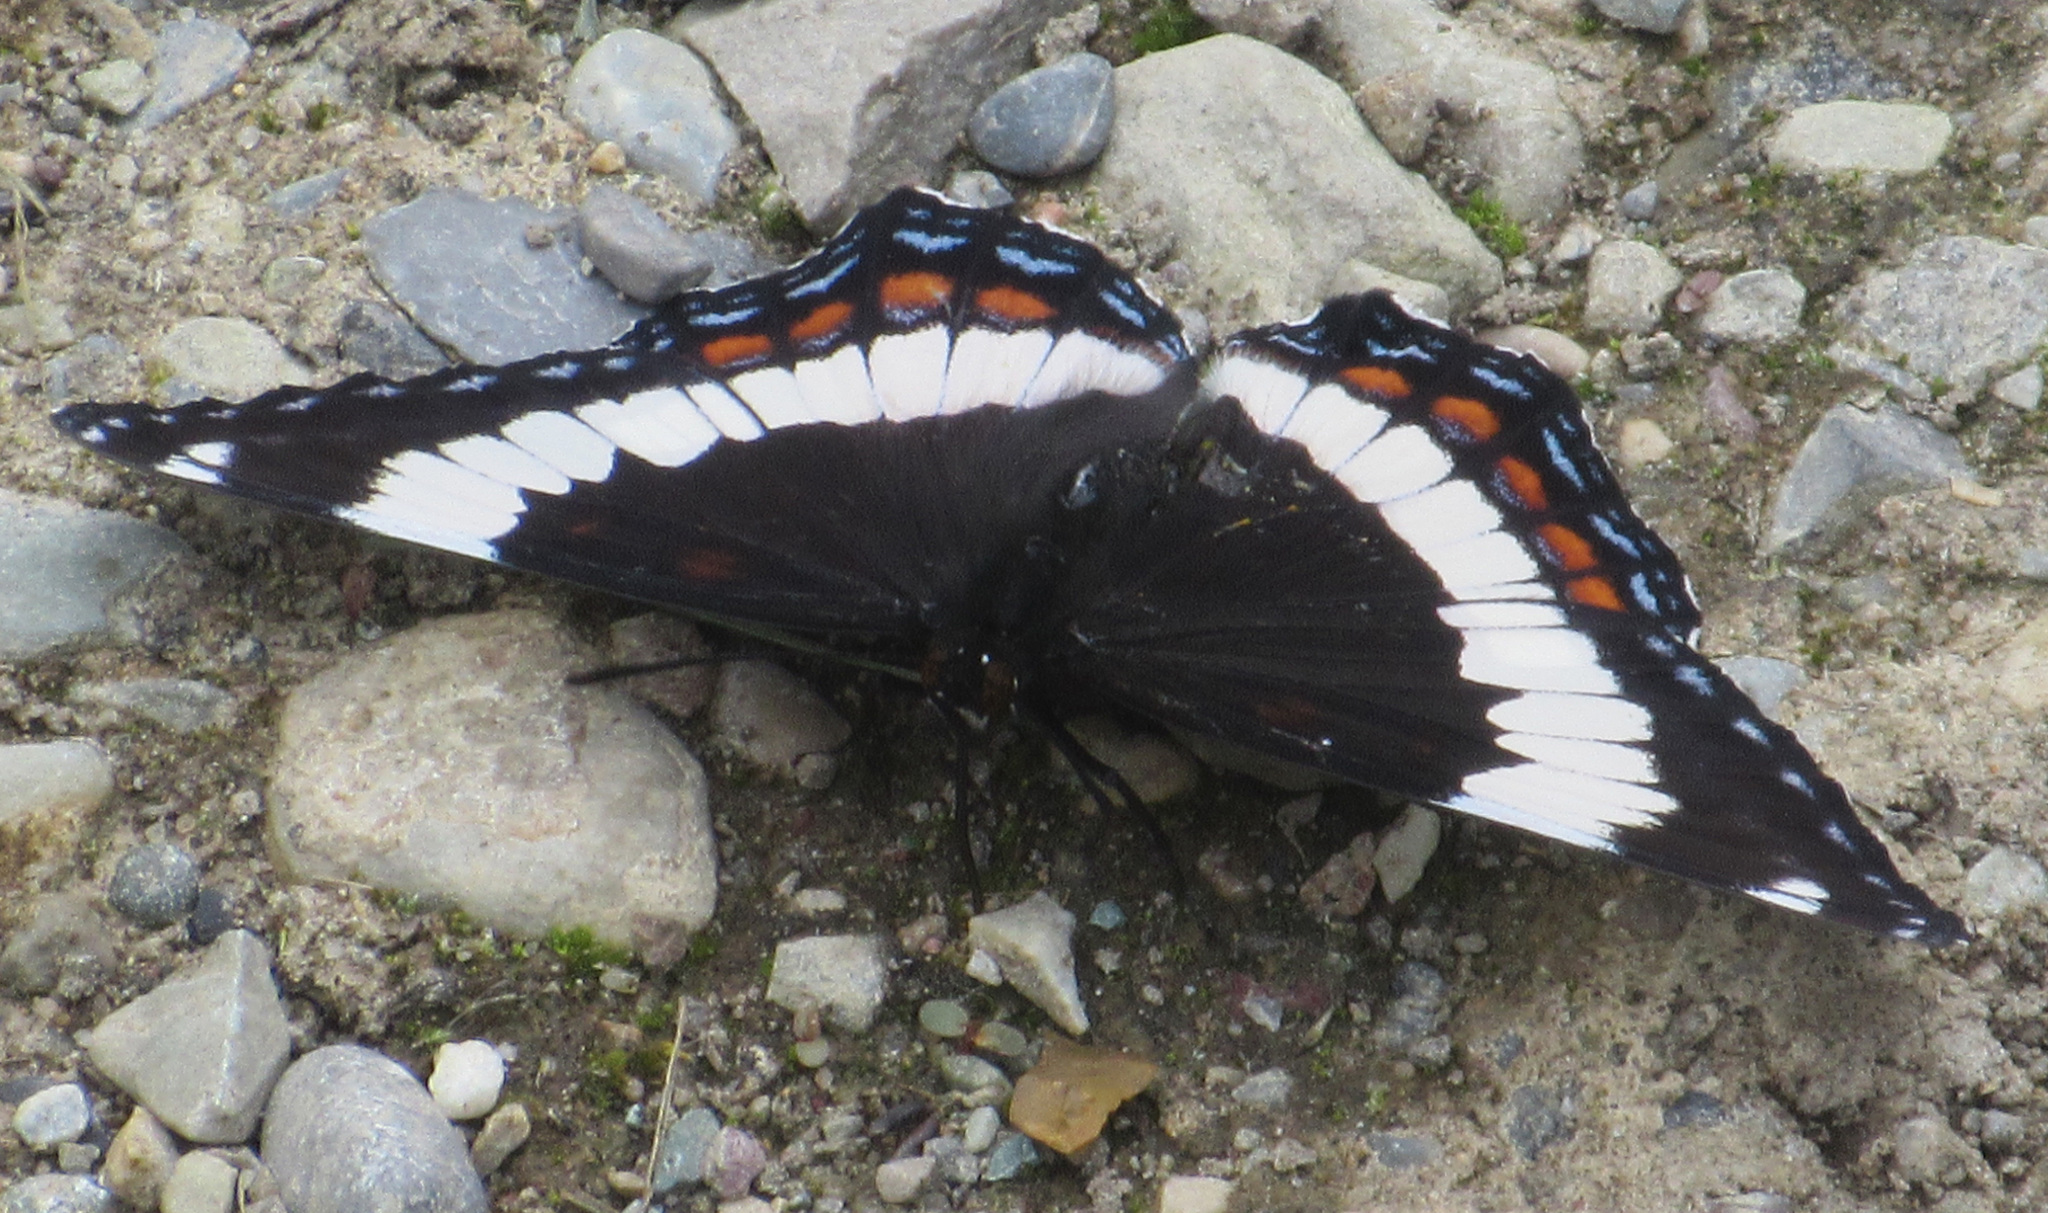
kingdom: Animalia
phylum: Arthropoda
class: Insecta
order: Lepidoptera
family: Nymphalidae
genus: Limenitis
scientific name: Limenitis arthemis
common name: Red-spotted admiral
